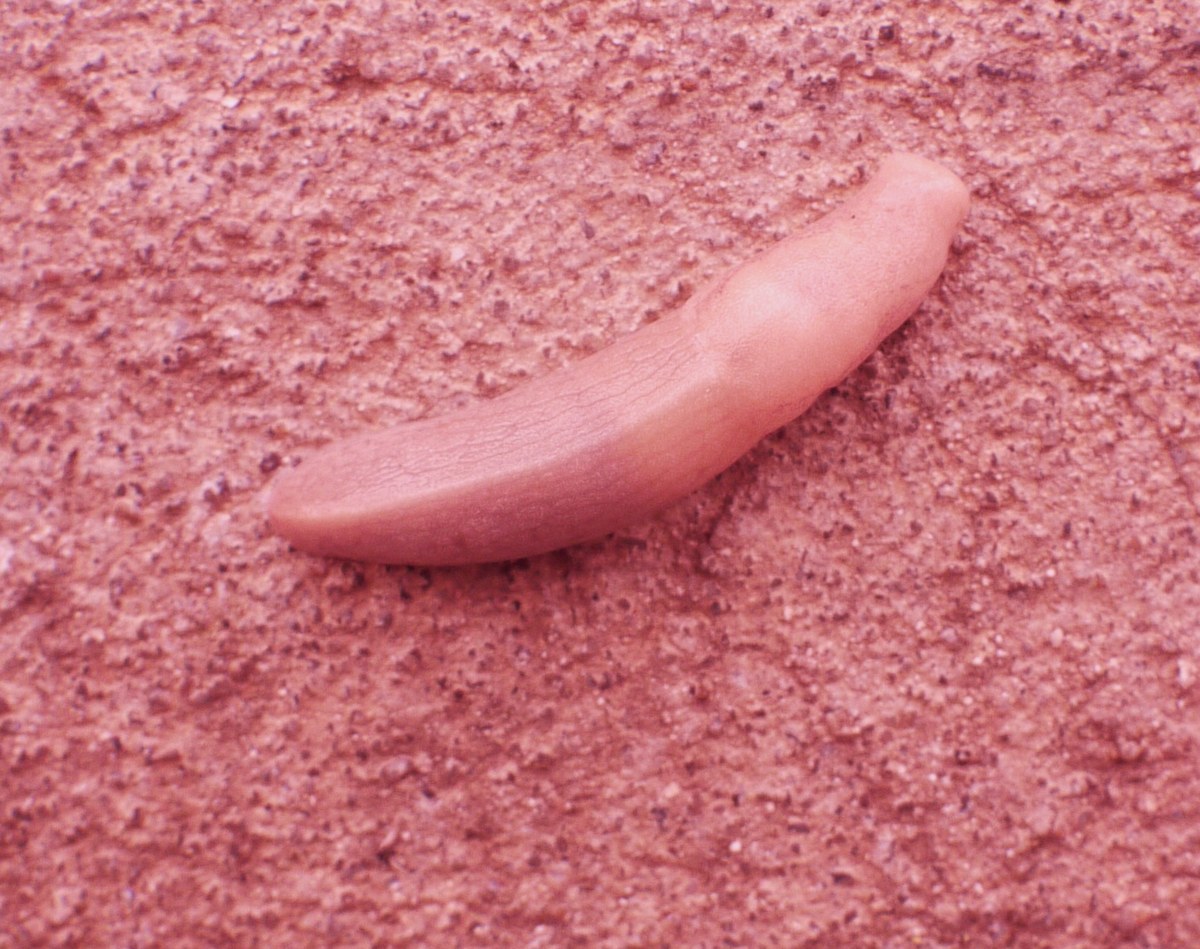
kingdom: Animalia
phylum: Mollusca
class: Gastropoda
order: Stylommatophora
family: Milacidae
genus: Tandonia
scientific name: Tandonia kusceri
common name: Keeled slug
